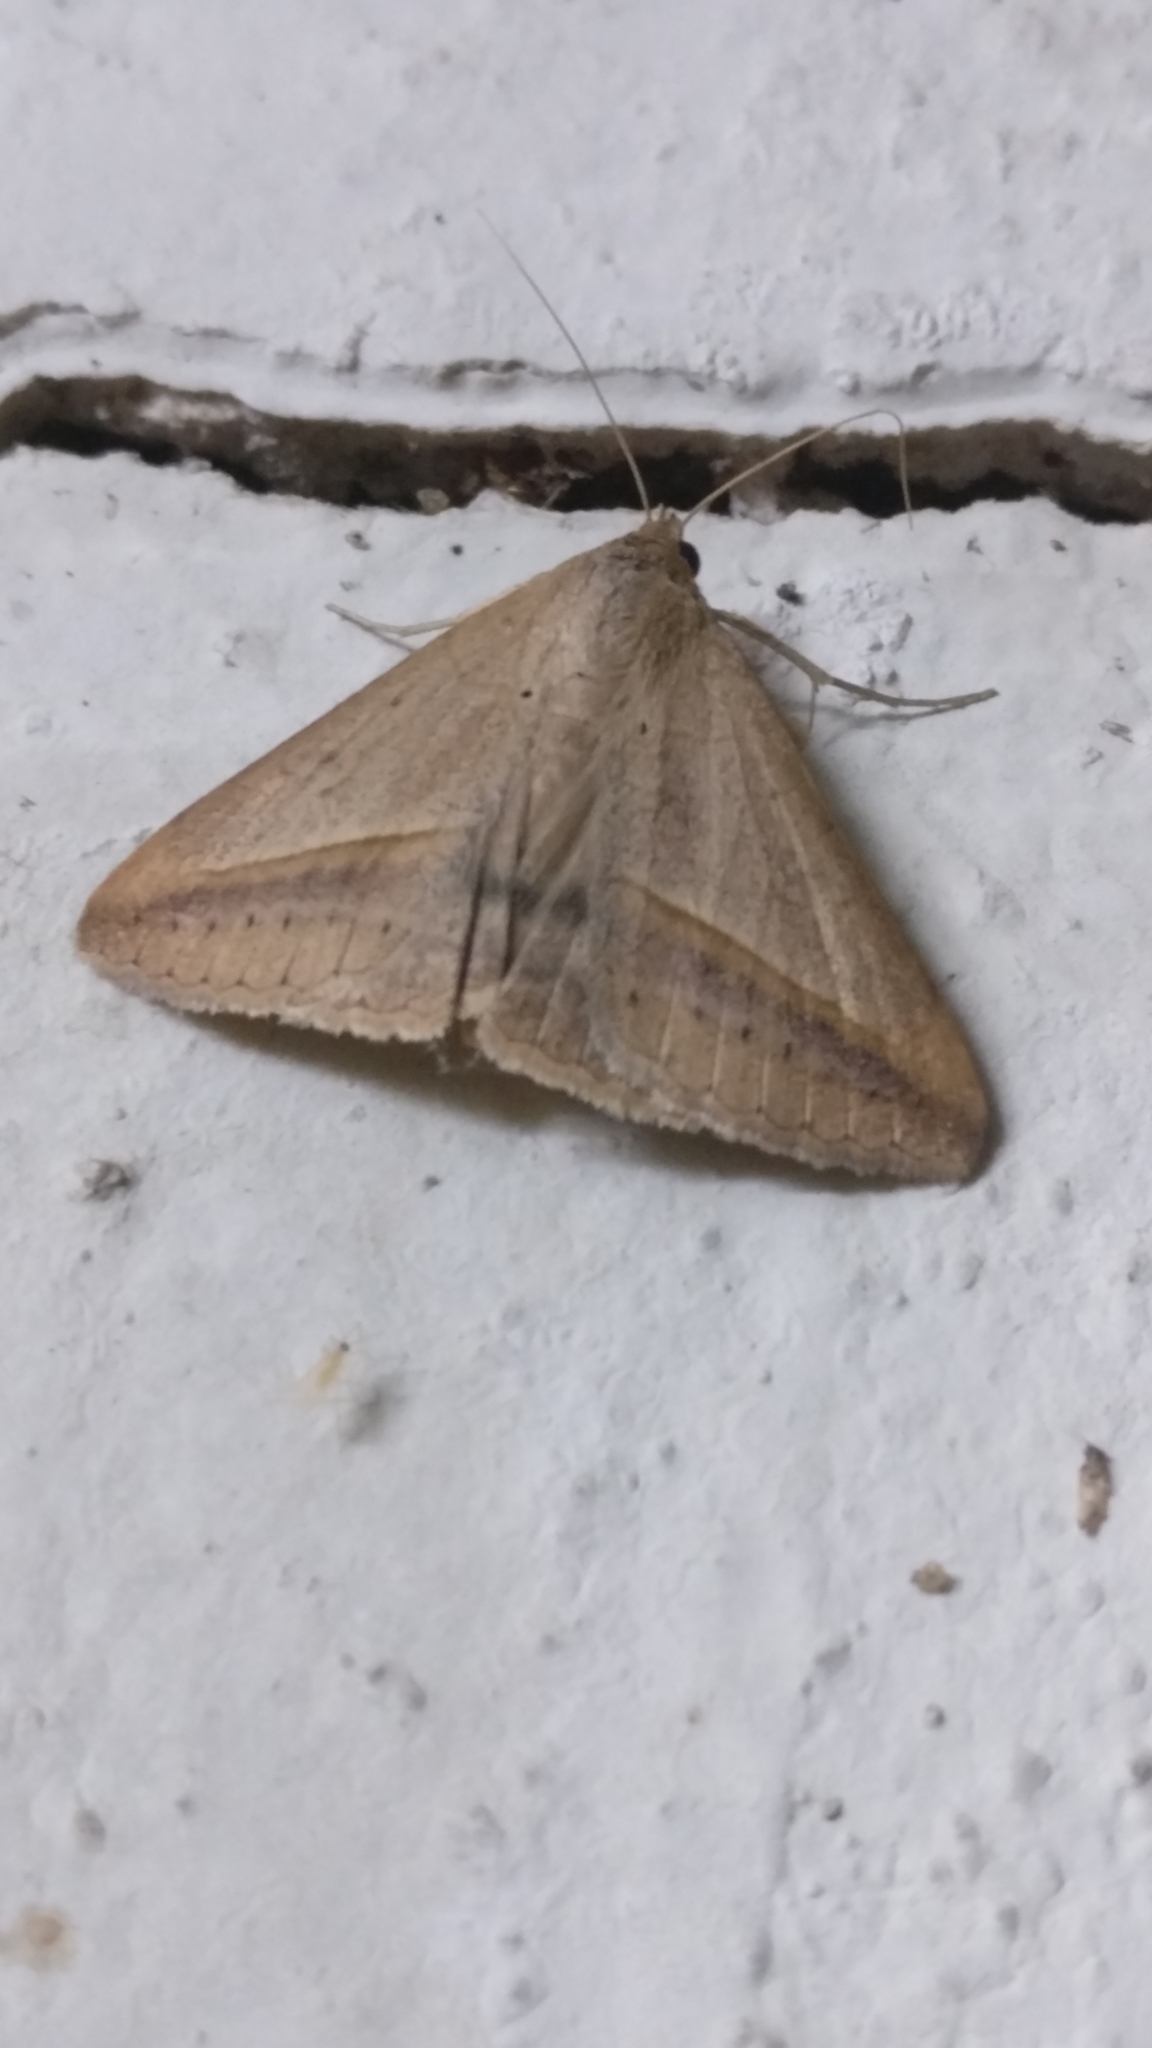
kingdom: Animalia
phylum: Arthropoda
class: Insecta
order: Lepidoptera
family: Erebidae
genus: Mocis
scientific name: Mocis frugalis
